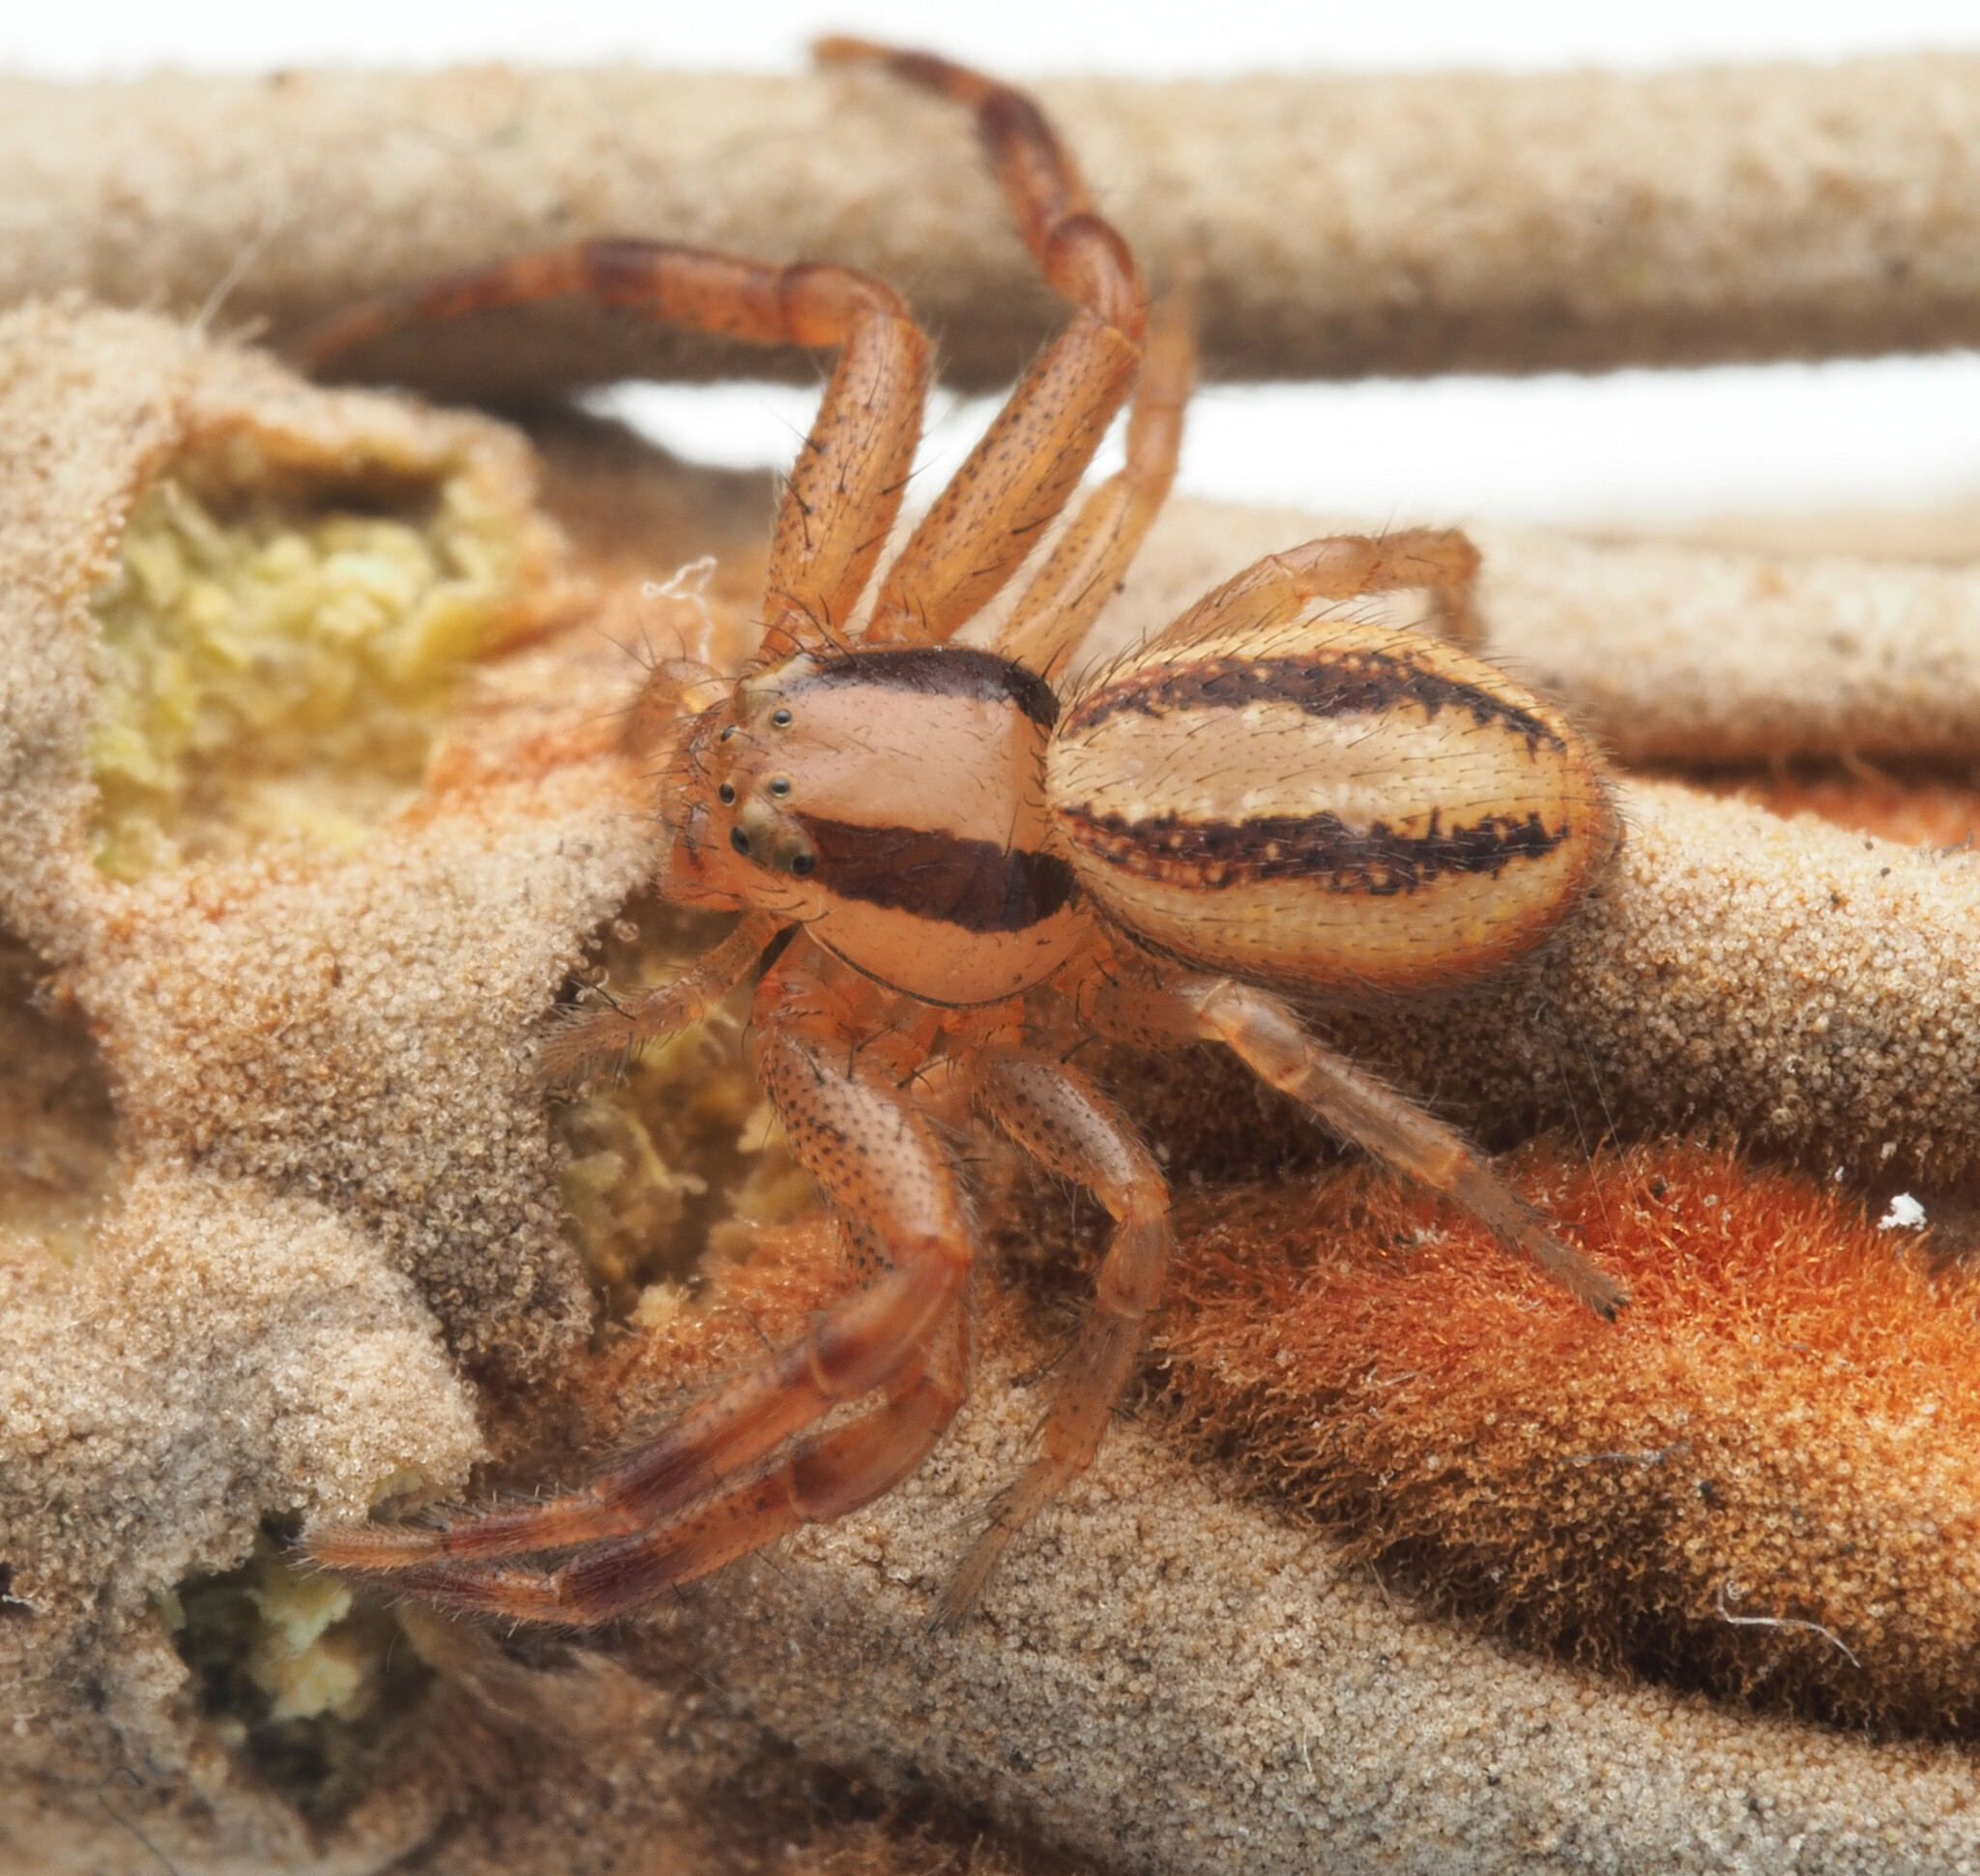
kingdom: Animalia
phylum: Arthropoda
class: Arachnida
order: Araneae
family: Thomisidae
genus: Australomisidia
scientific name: Australomisidia cruentata
